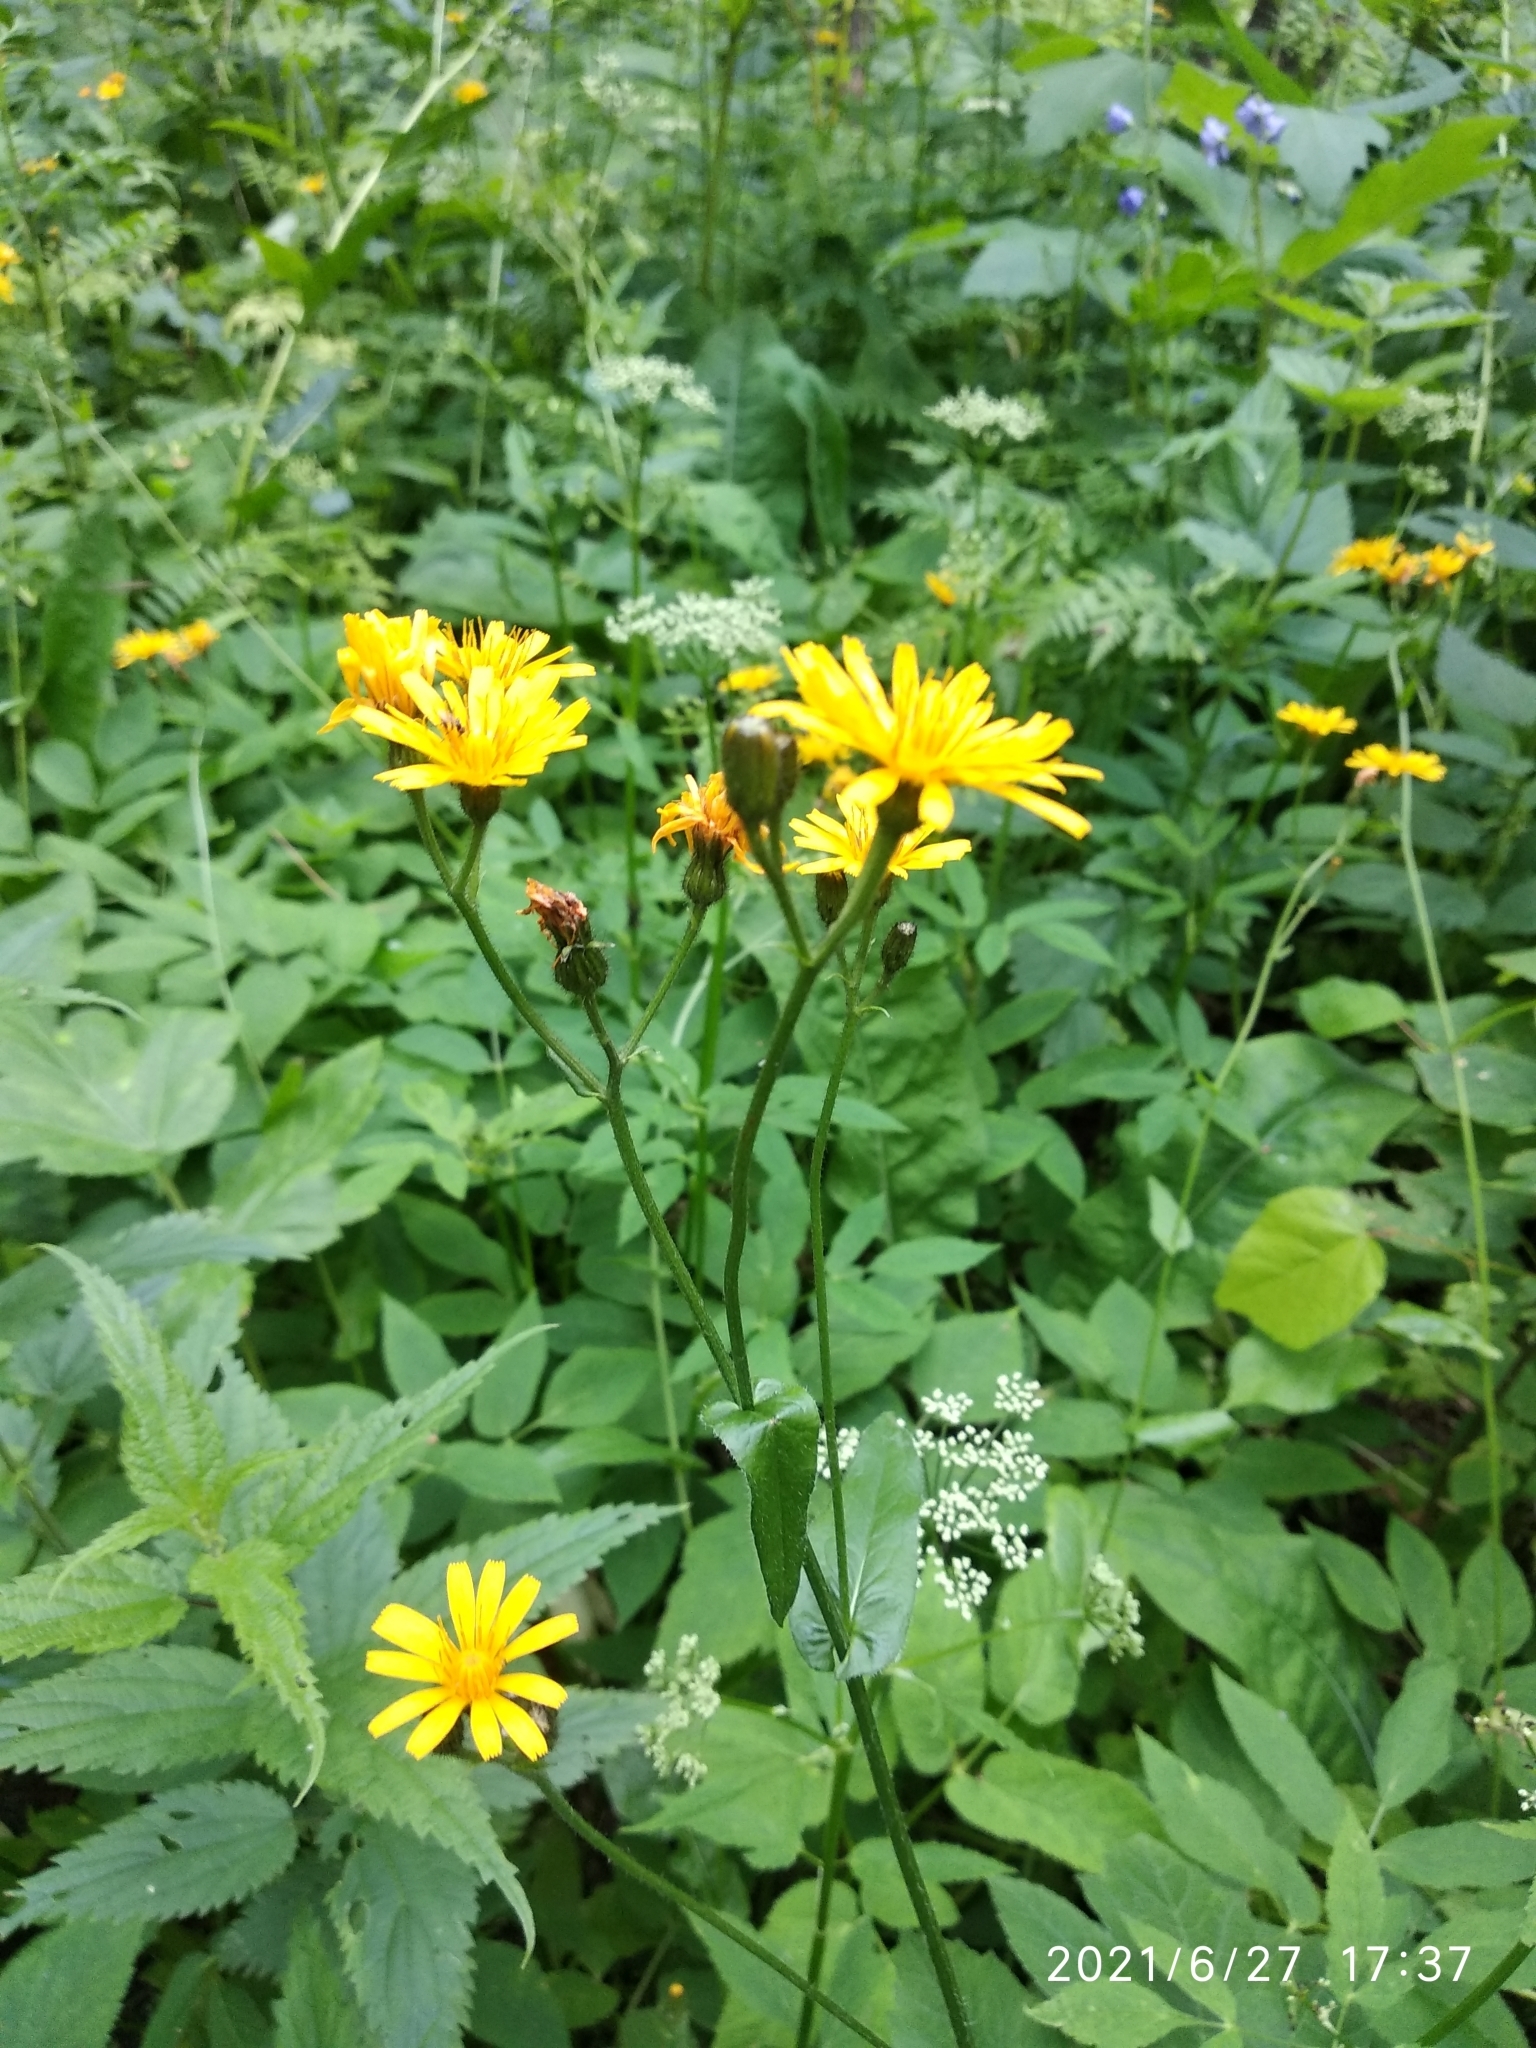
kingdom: Plantae
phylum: Tracheophyta
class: Magnoliopsida
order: Asterales
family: Asteraceae
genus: Crepis
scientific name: Crepis lyrata
